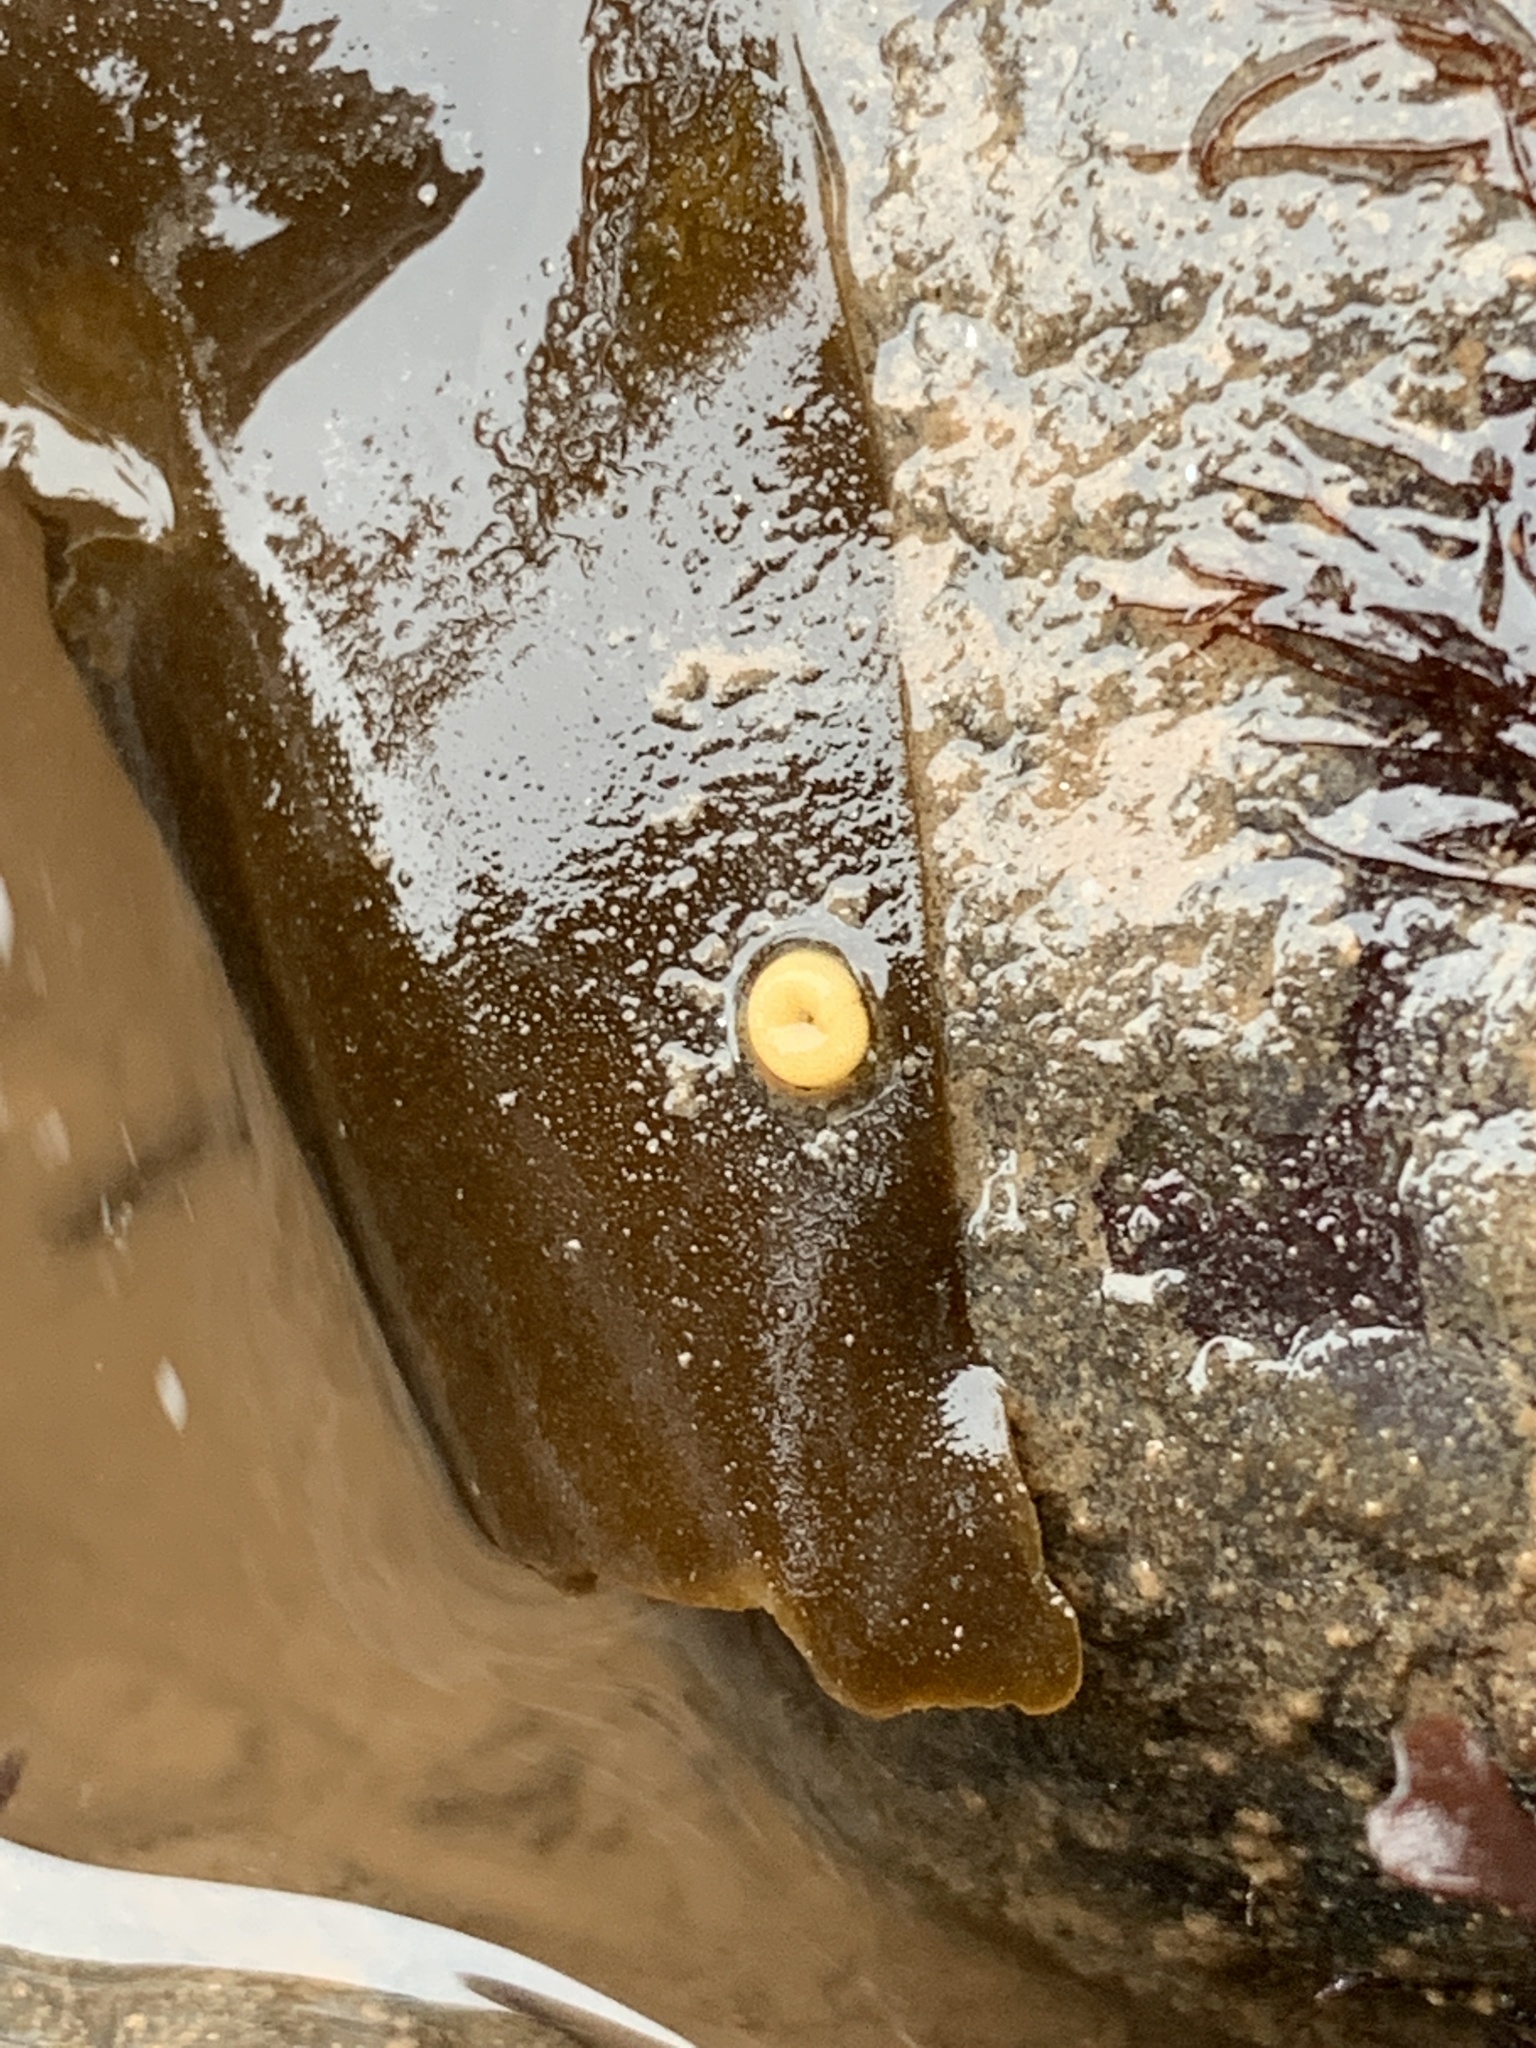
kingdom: Animalia
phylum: Mollusca
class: Gastropoda
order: Littorinimorpha
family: Littorinidae
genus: Lacuna
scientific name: Lacuna vincta
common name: Banded chink shell
